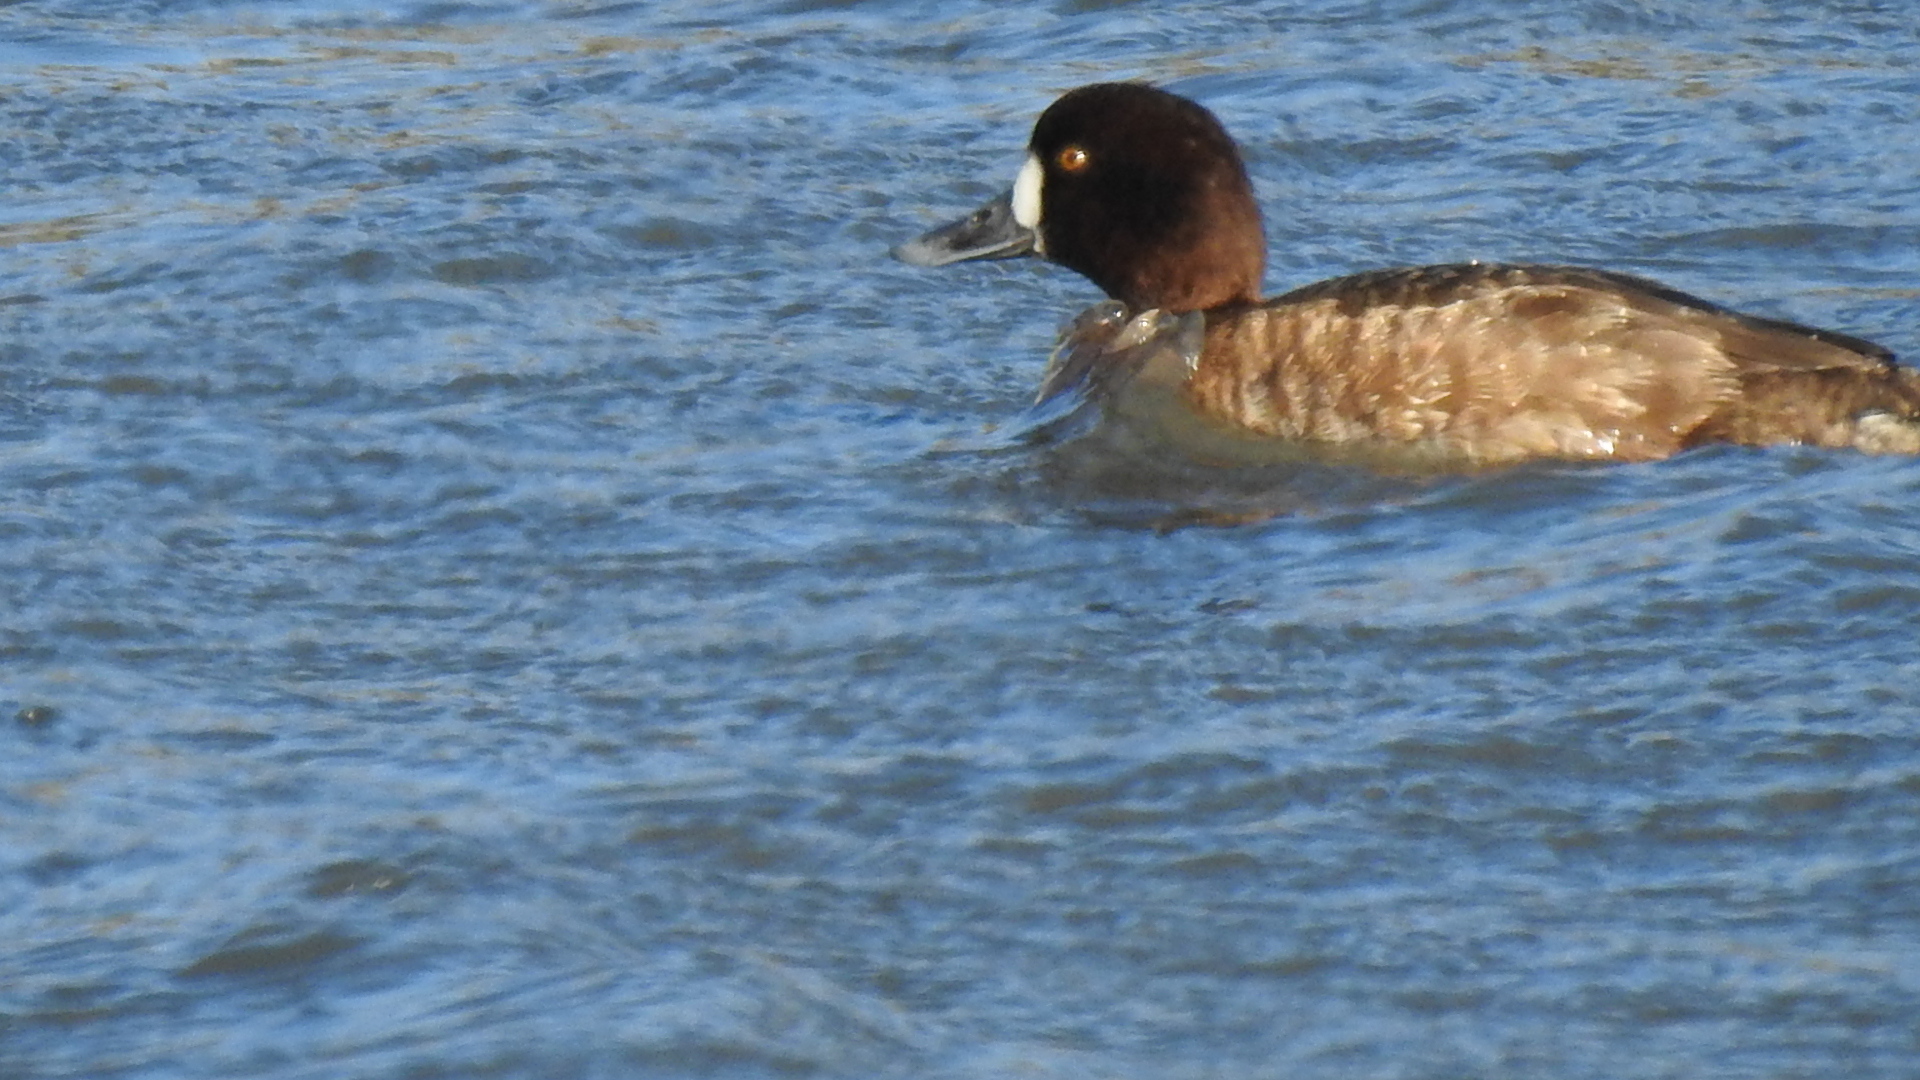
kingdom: Animalia
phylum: Chordata
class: Aves
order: Anseriformes
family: Anatidae
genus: Aythya
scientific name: Aythya marila
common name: Greater scaup
